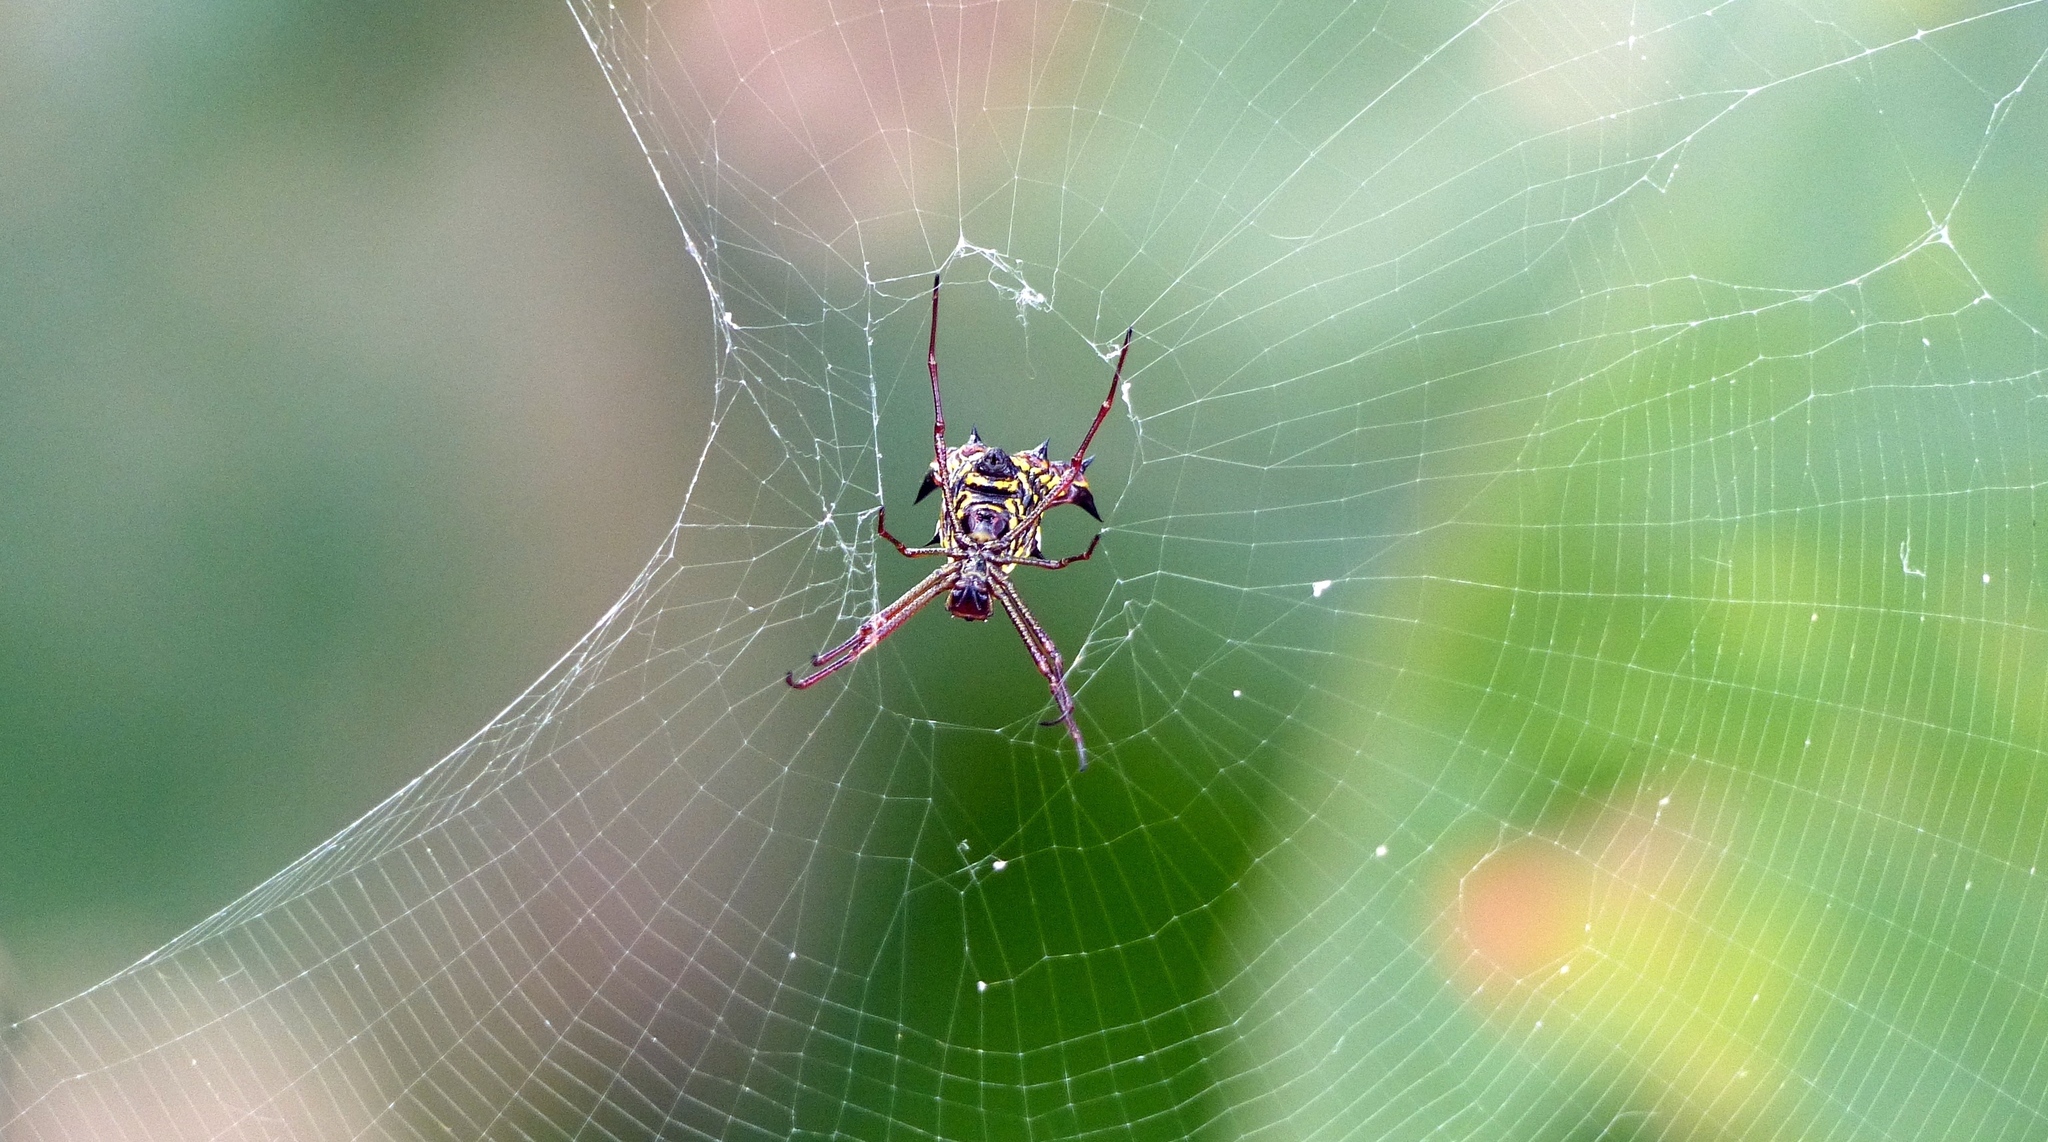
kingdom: Animalia
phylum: Arthropoda
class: Arachnida
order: Araneae
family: Araneidae
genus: Micrathena
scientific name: Micrathena fissispina
